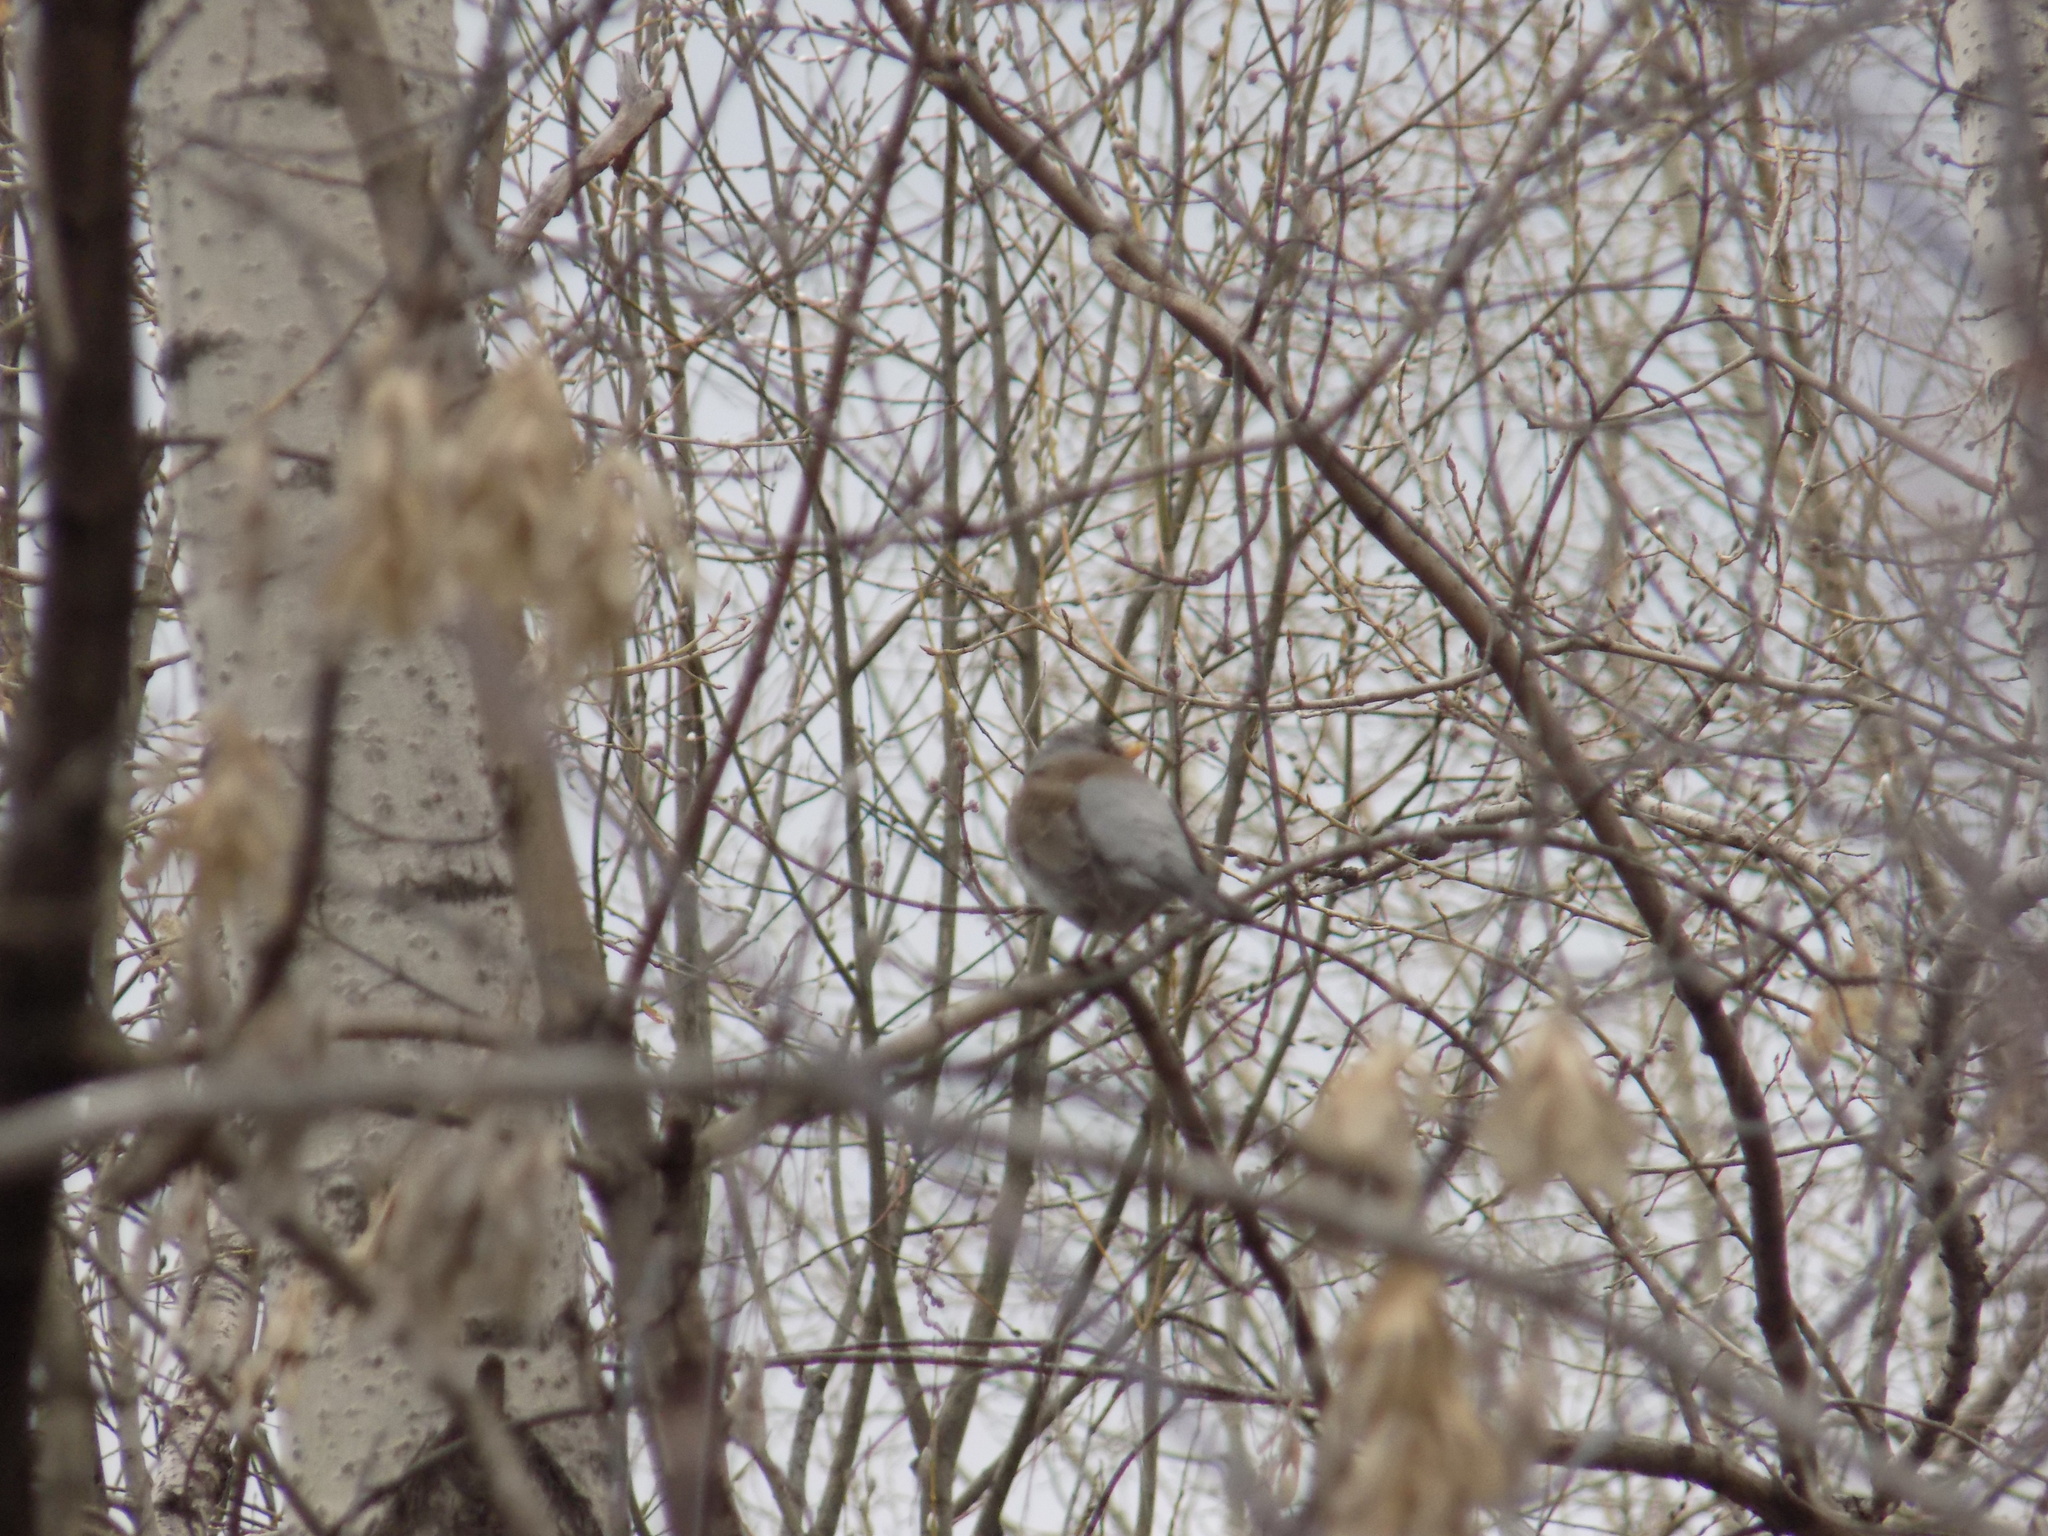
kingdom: Animalia
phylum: Chordata
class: Aves
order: Passeriformes
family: Turdidae
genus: Turdus
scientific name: Turdus pilaris
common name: Fieldfare
